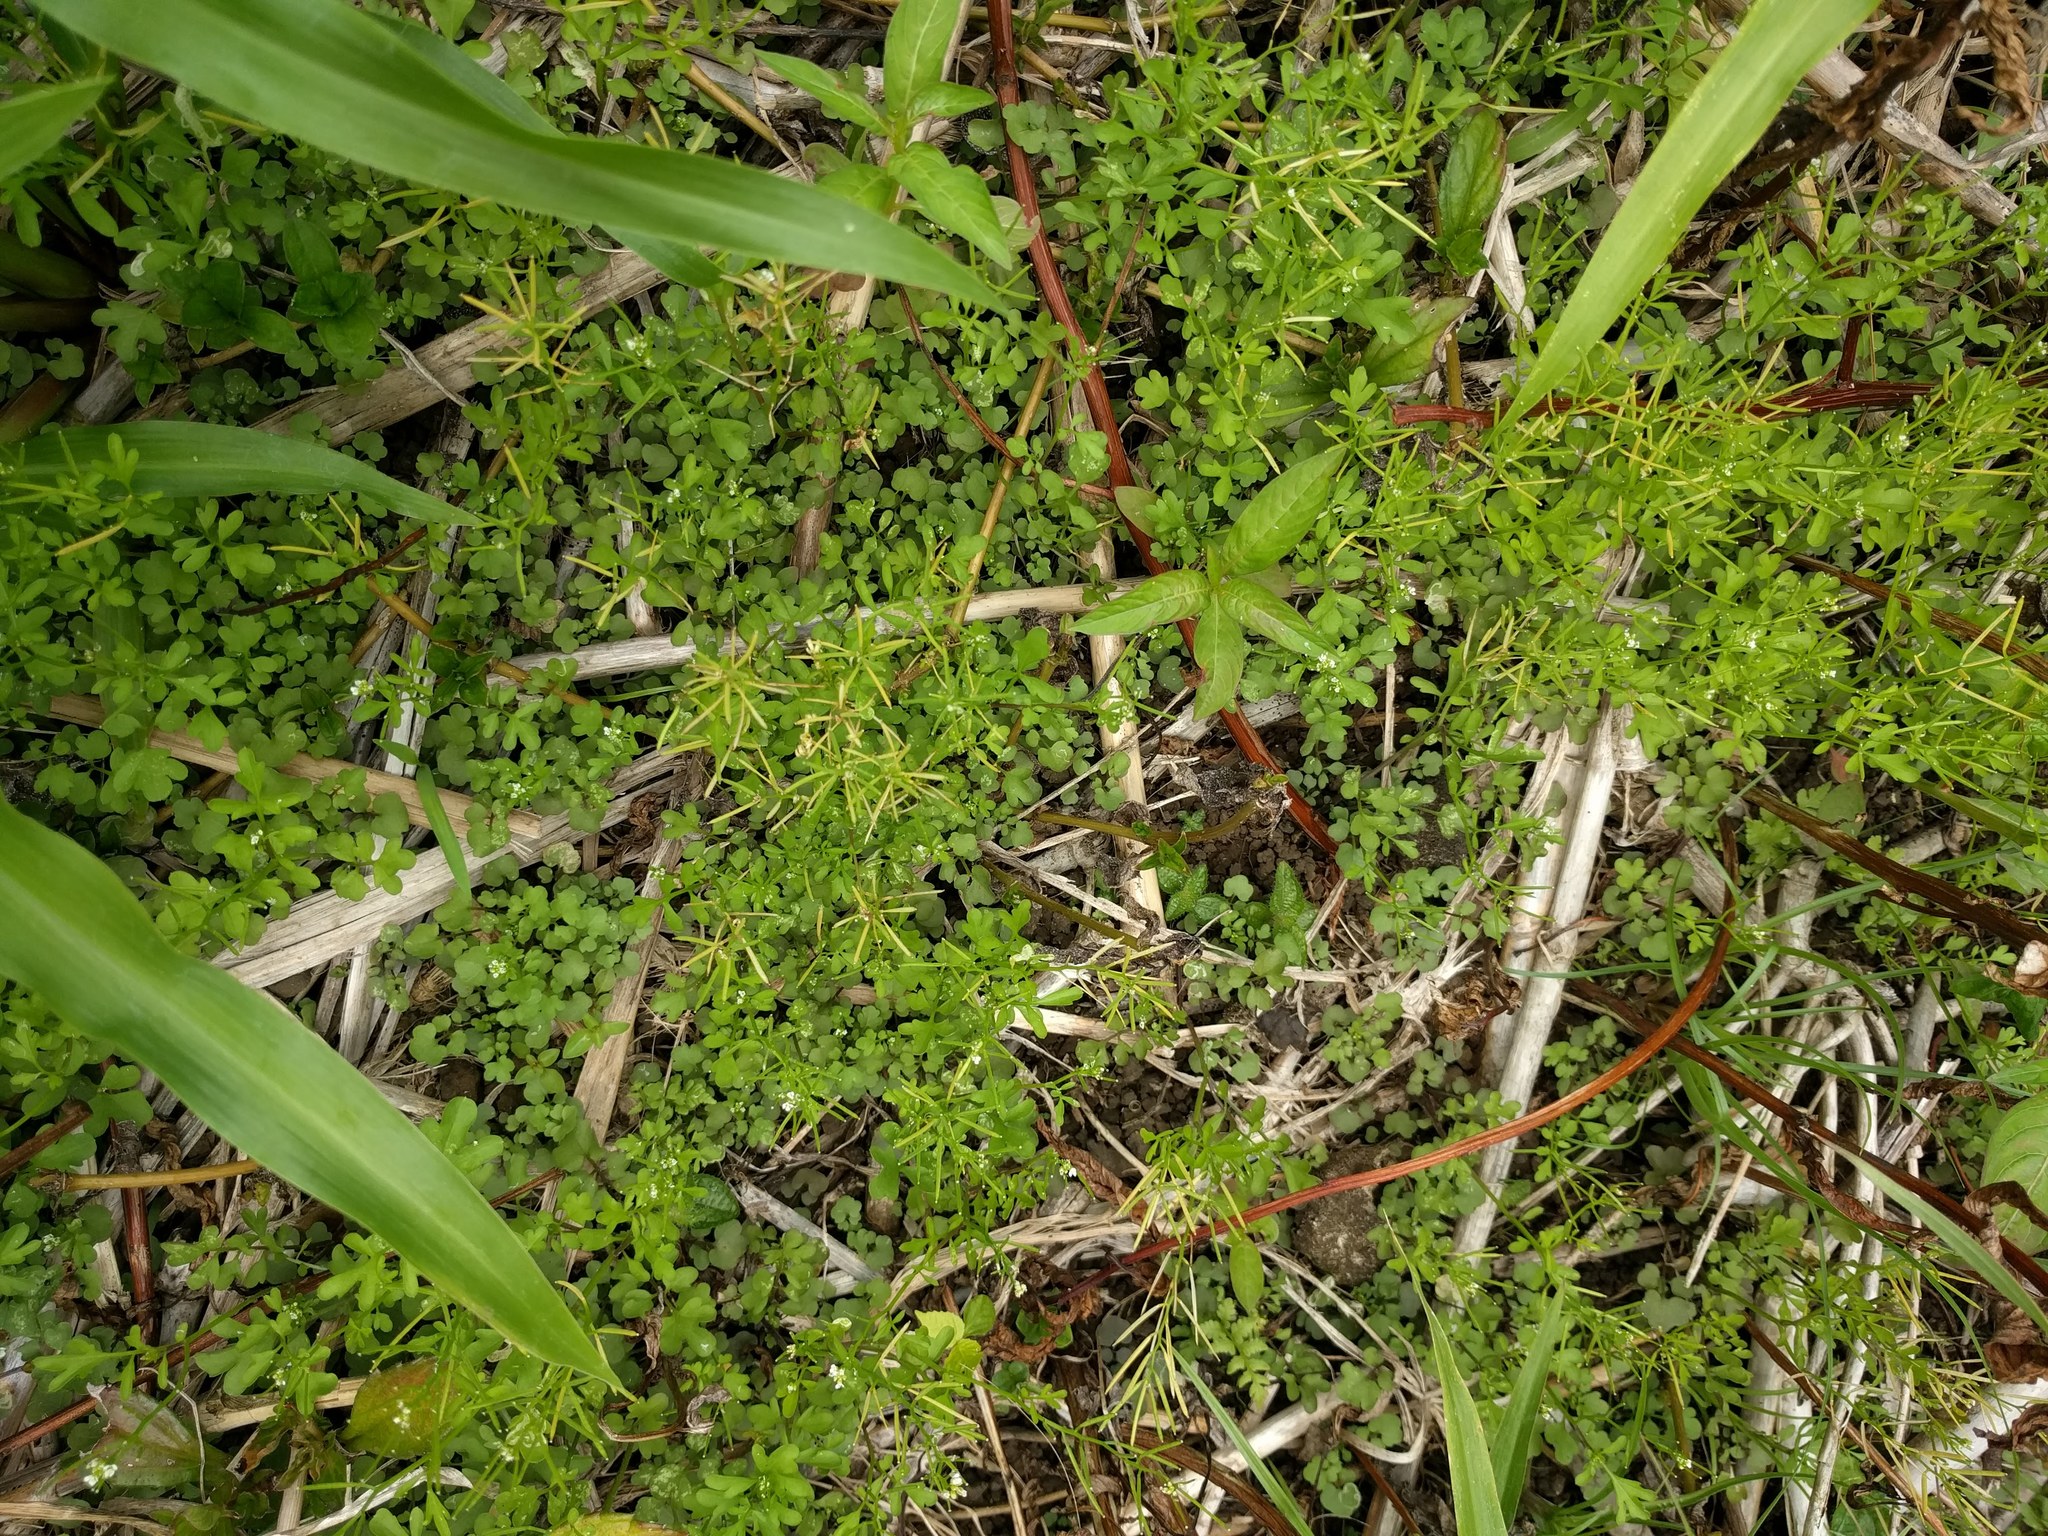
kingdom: Plantae
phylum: Tracheophyta
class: Magnoliopsida
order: Brassicales
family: Brassicaceae
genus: Cardamine
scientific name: Cardamine occulta
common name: Asian wavy bittercress
